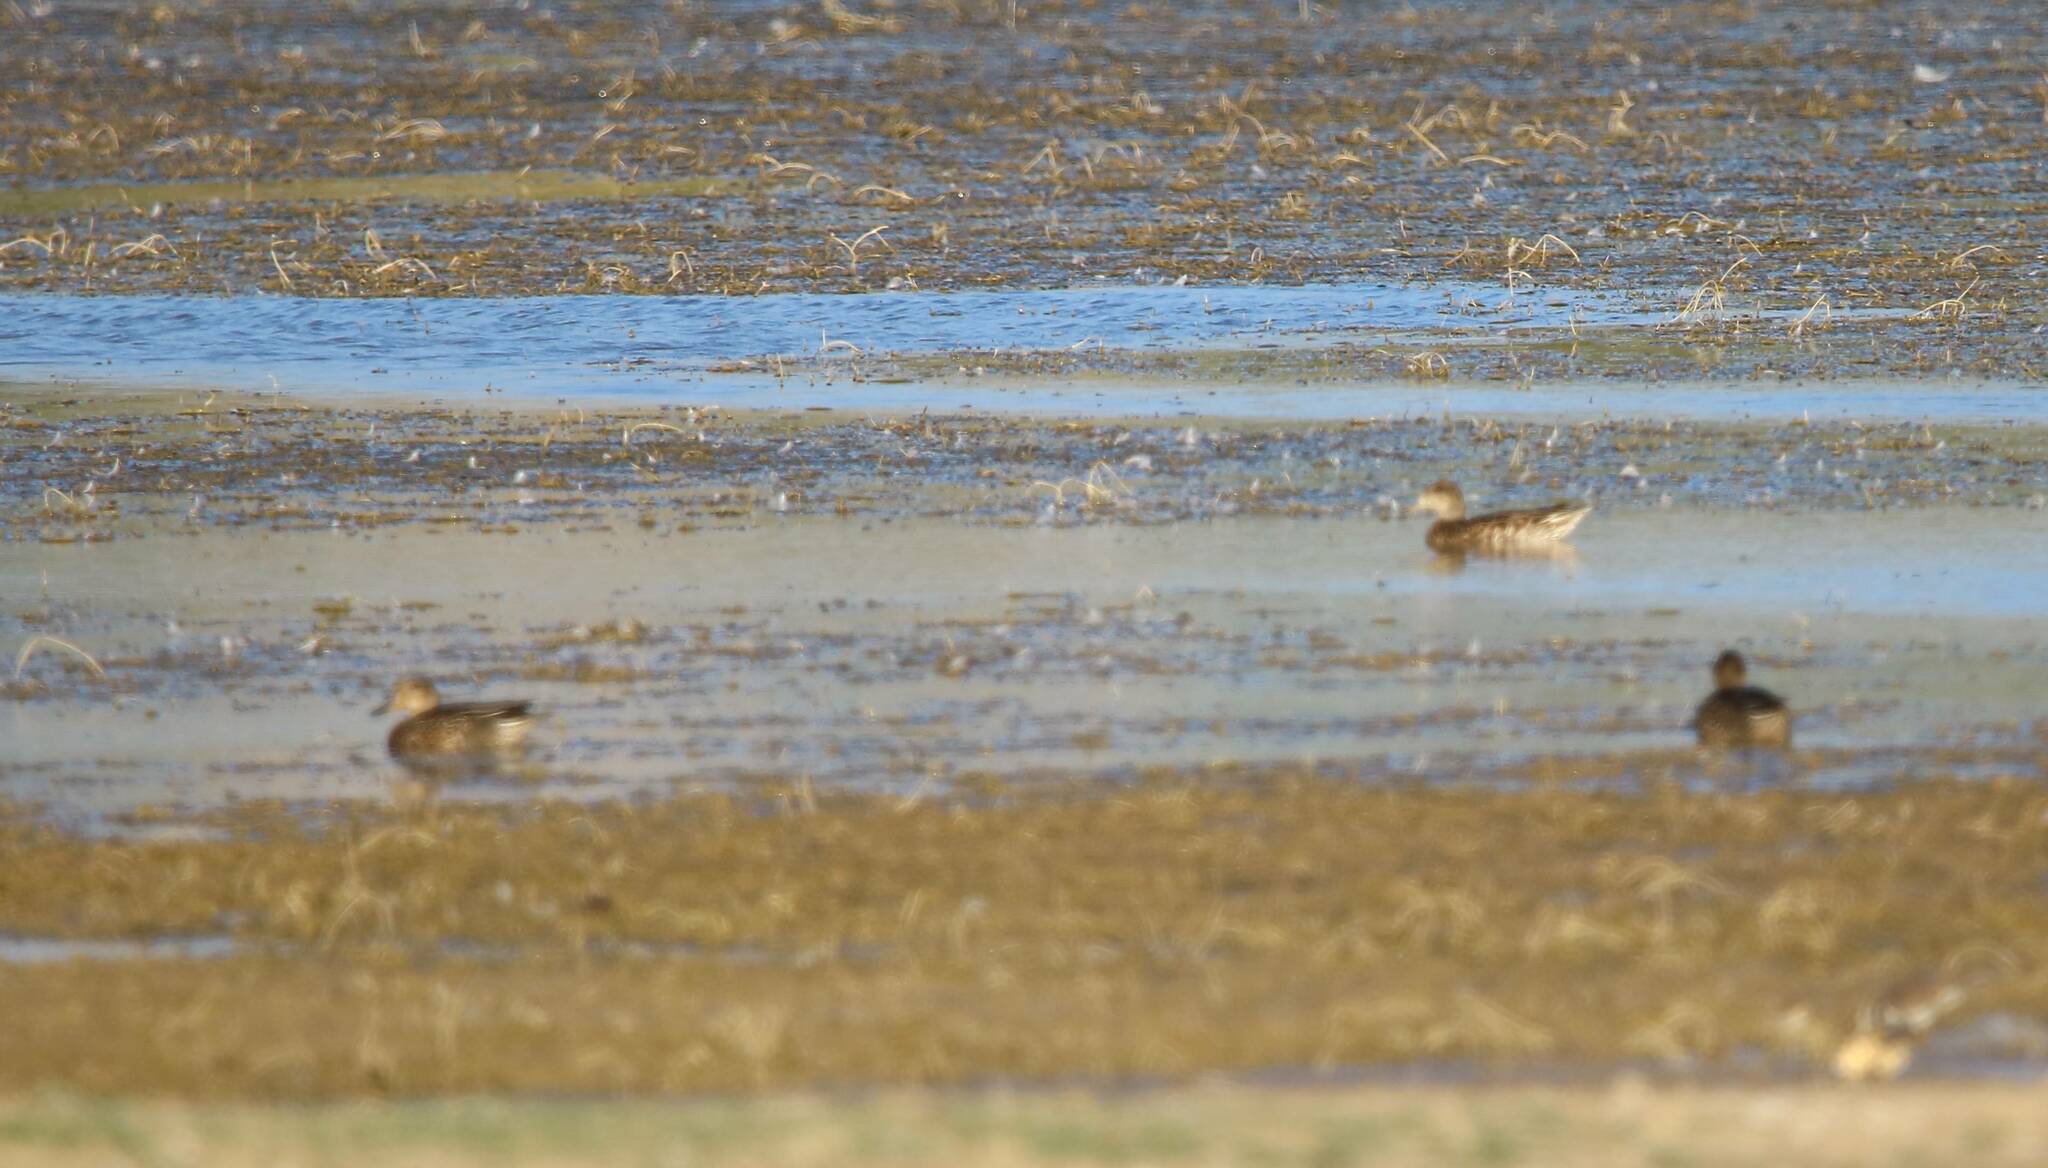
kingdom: Animalia
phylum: Chordata
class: Aves
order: Anseriformes
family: Anatidae
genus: Anas
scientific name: Anas crecca
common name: Eurasian teal
